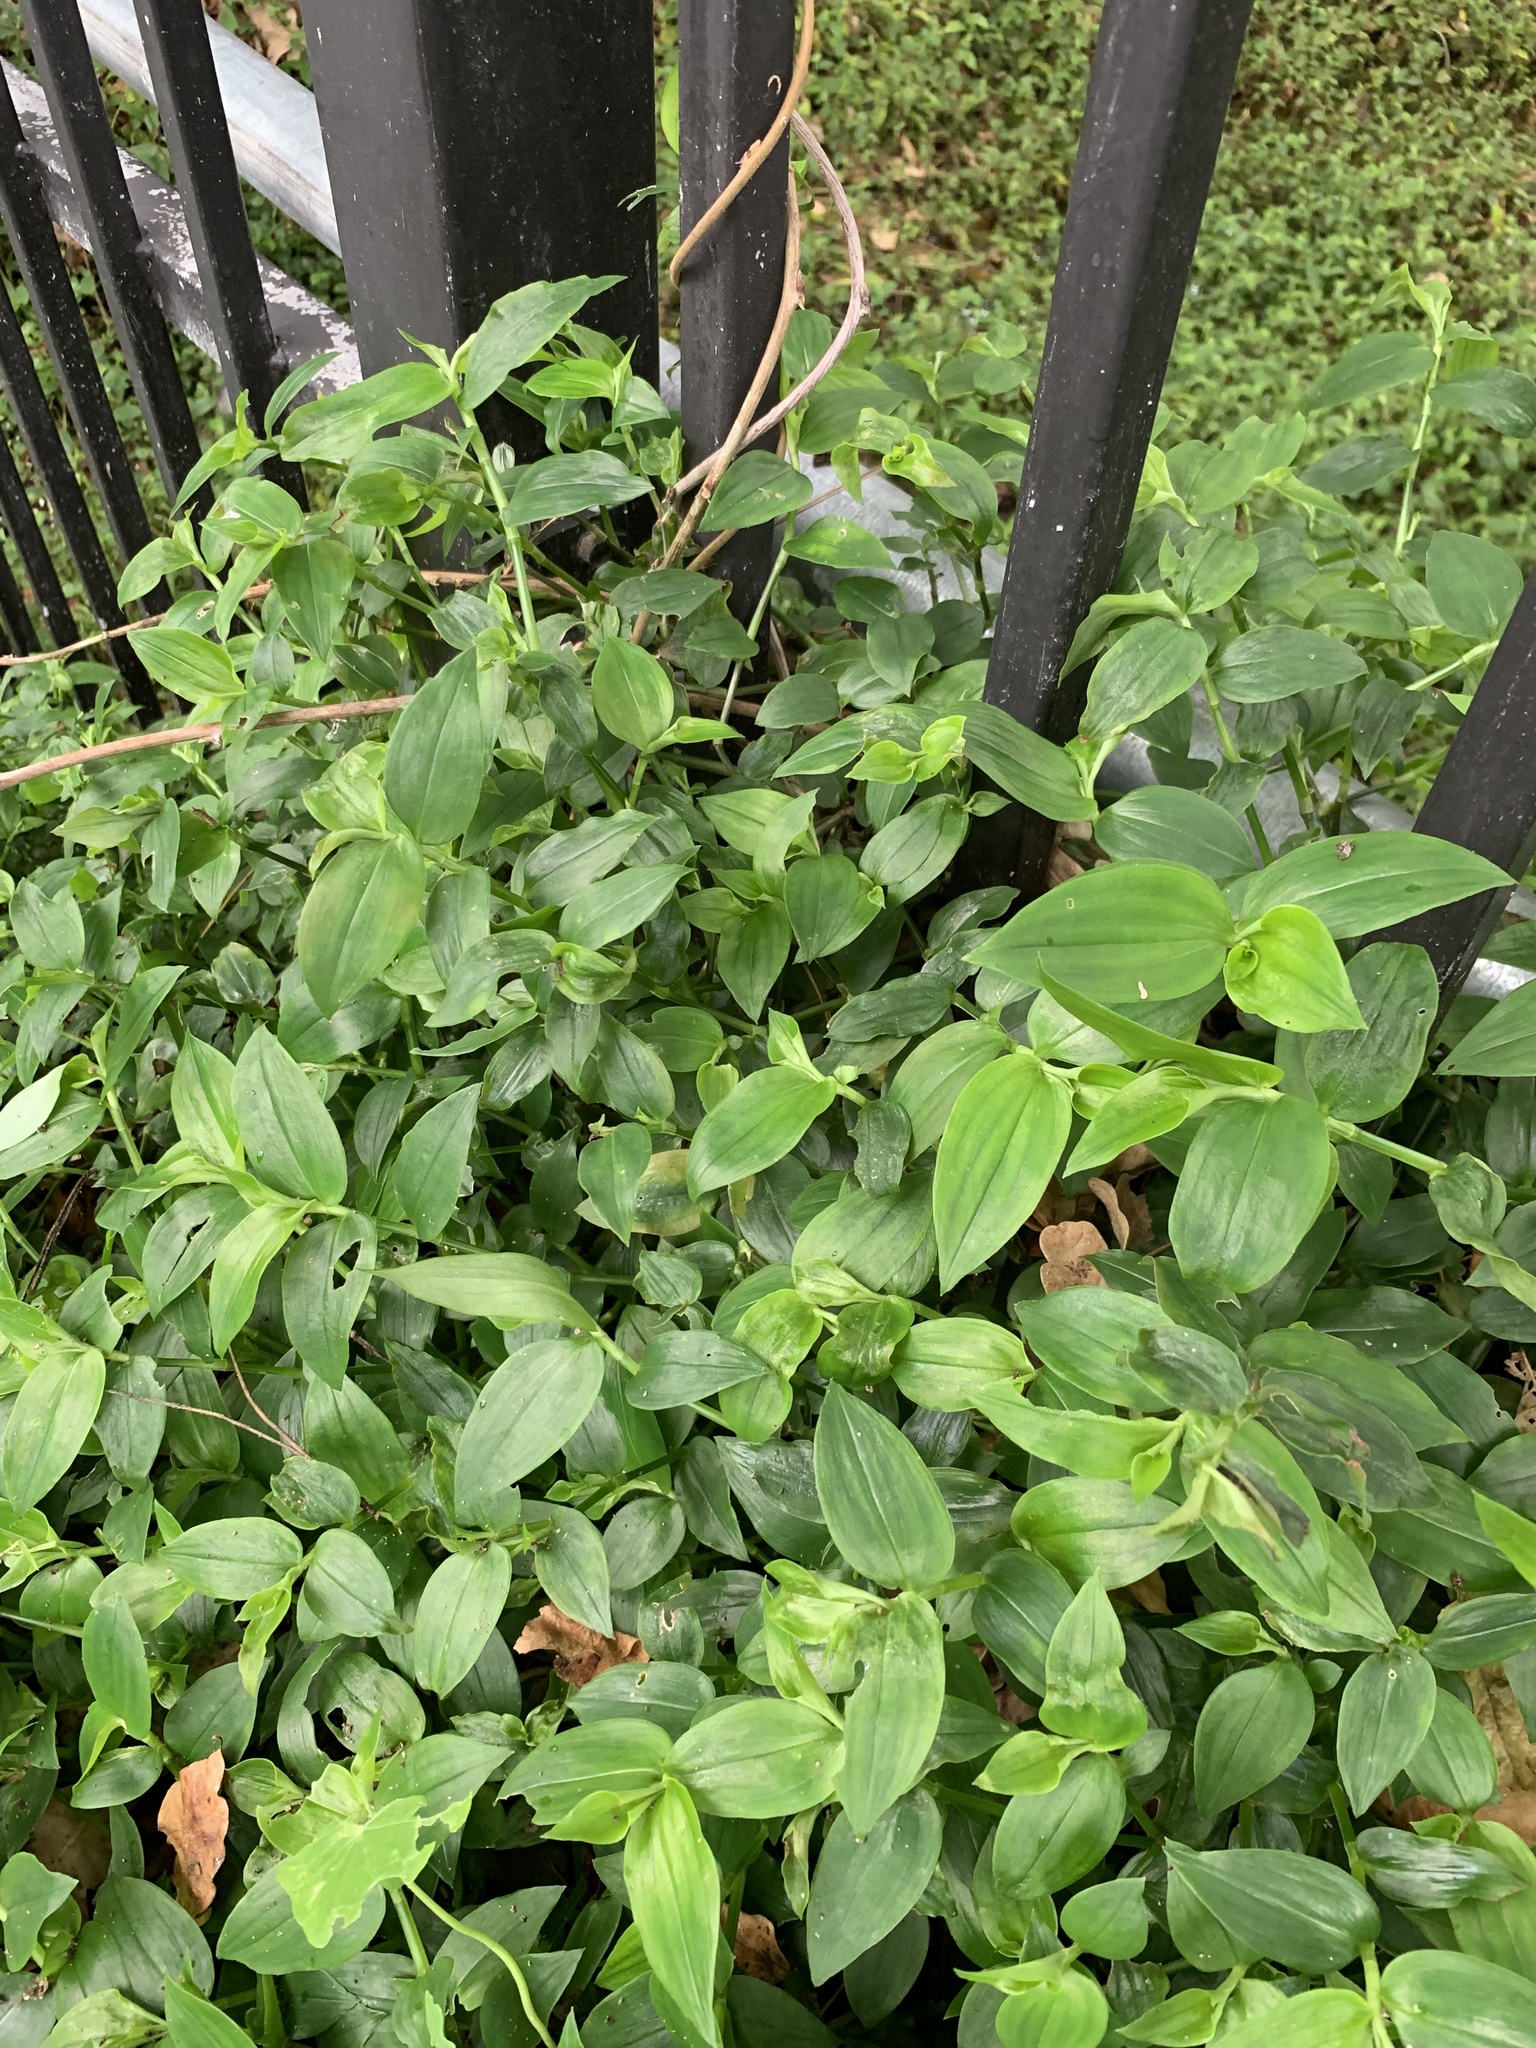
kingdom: Plantae
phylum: Tracheophyta
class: Liliopsida
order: Commelinales
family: Commelinaceae
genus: Tradescantia
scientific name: Tradescantia fluminensis
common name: Wandering-jew
